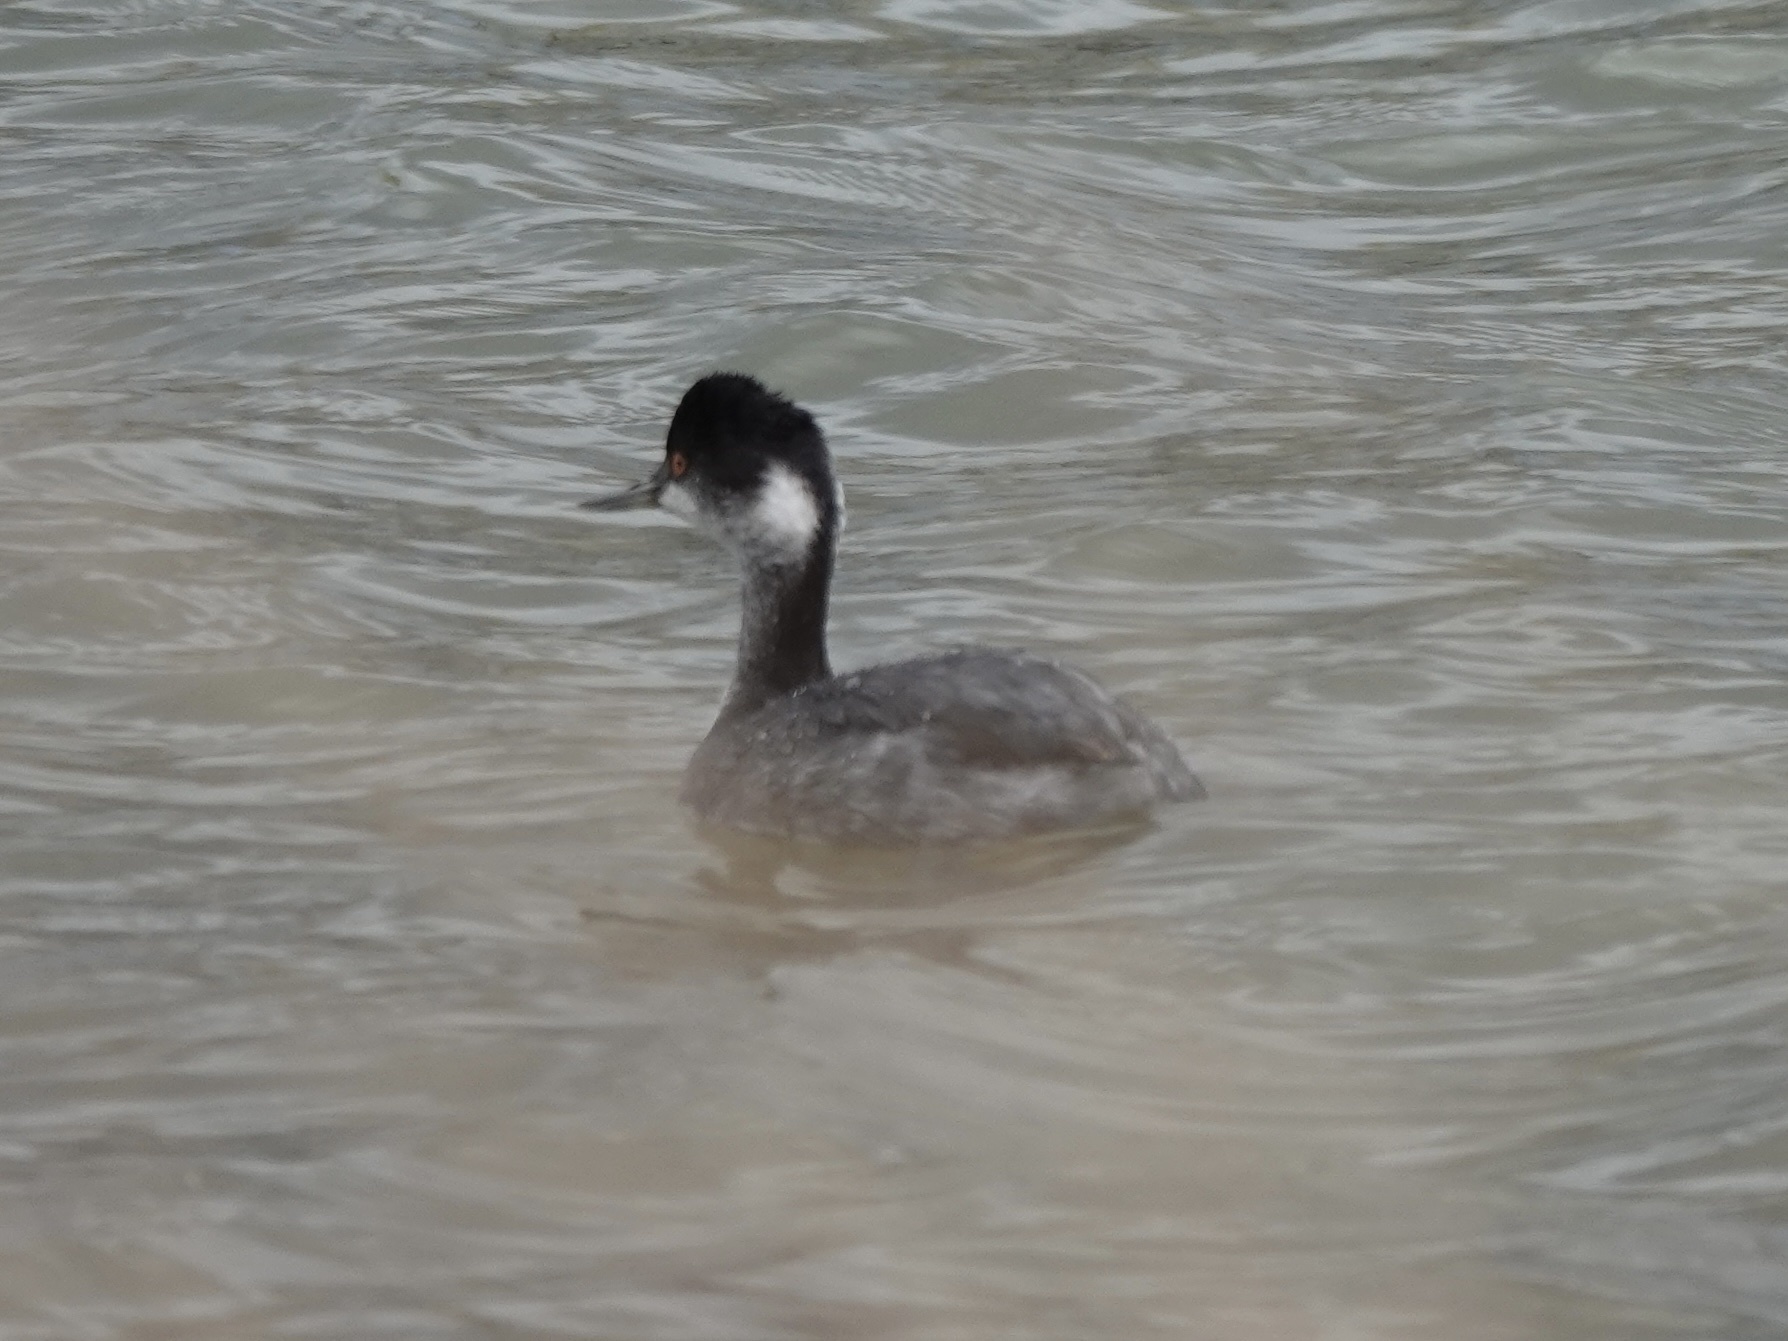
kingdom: Animalia
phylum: Chordata
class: Aves
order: Podicipediformes
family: Podicipedidae
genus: Podiceps
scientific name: Podiceps nigricollis
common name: Black-necked grebe
